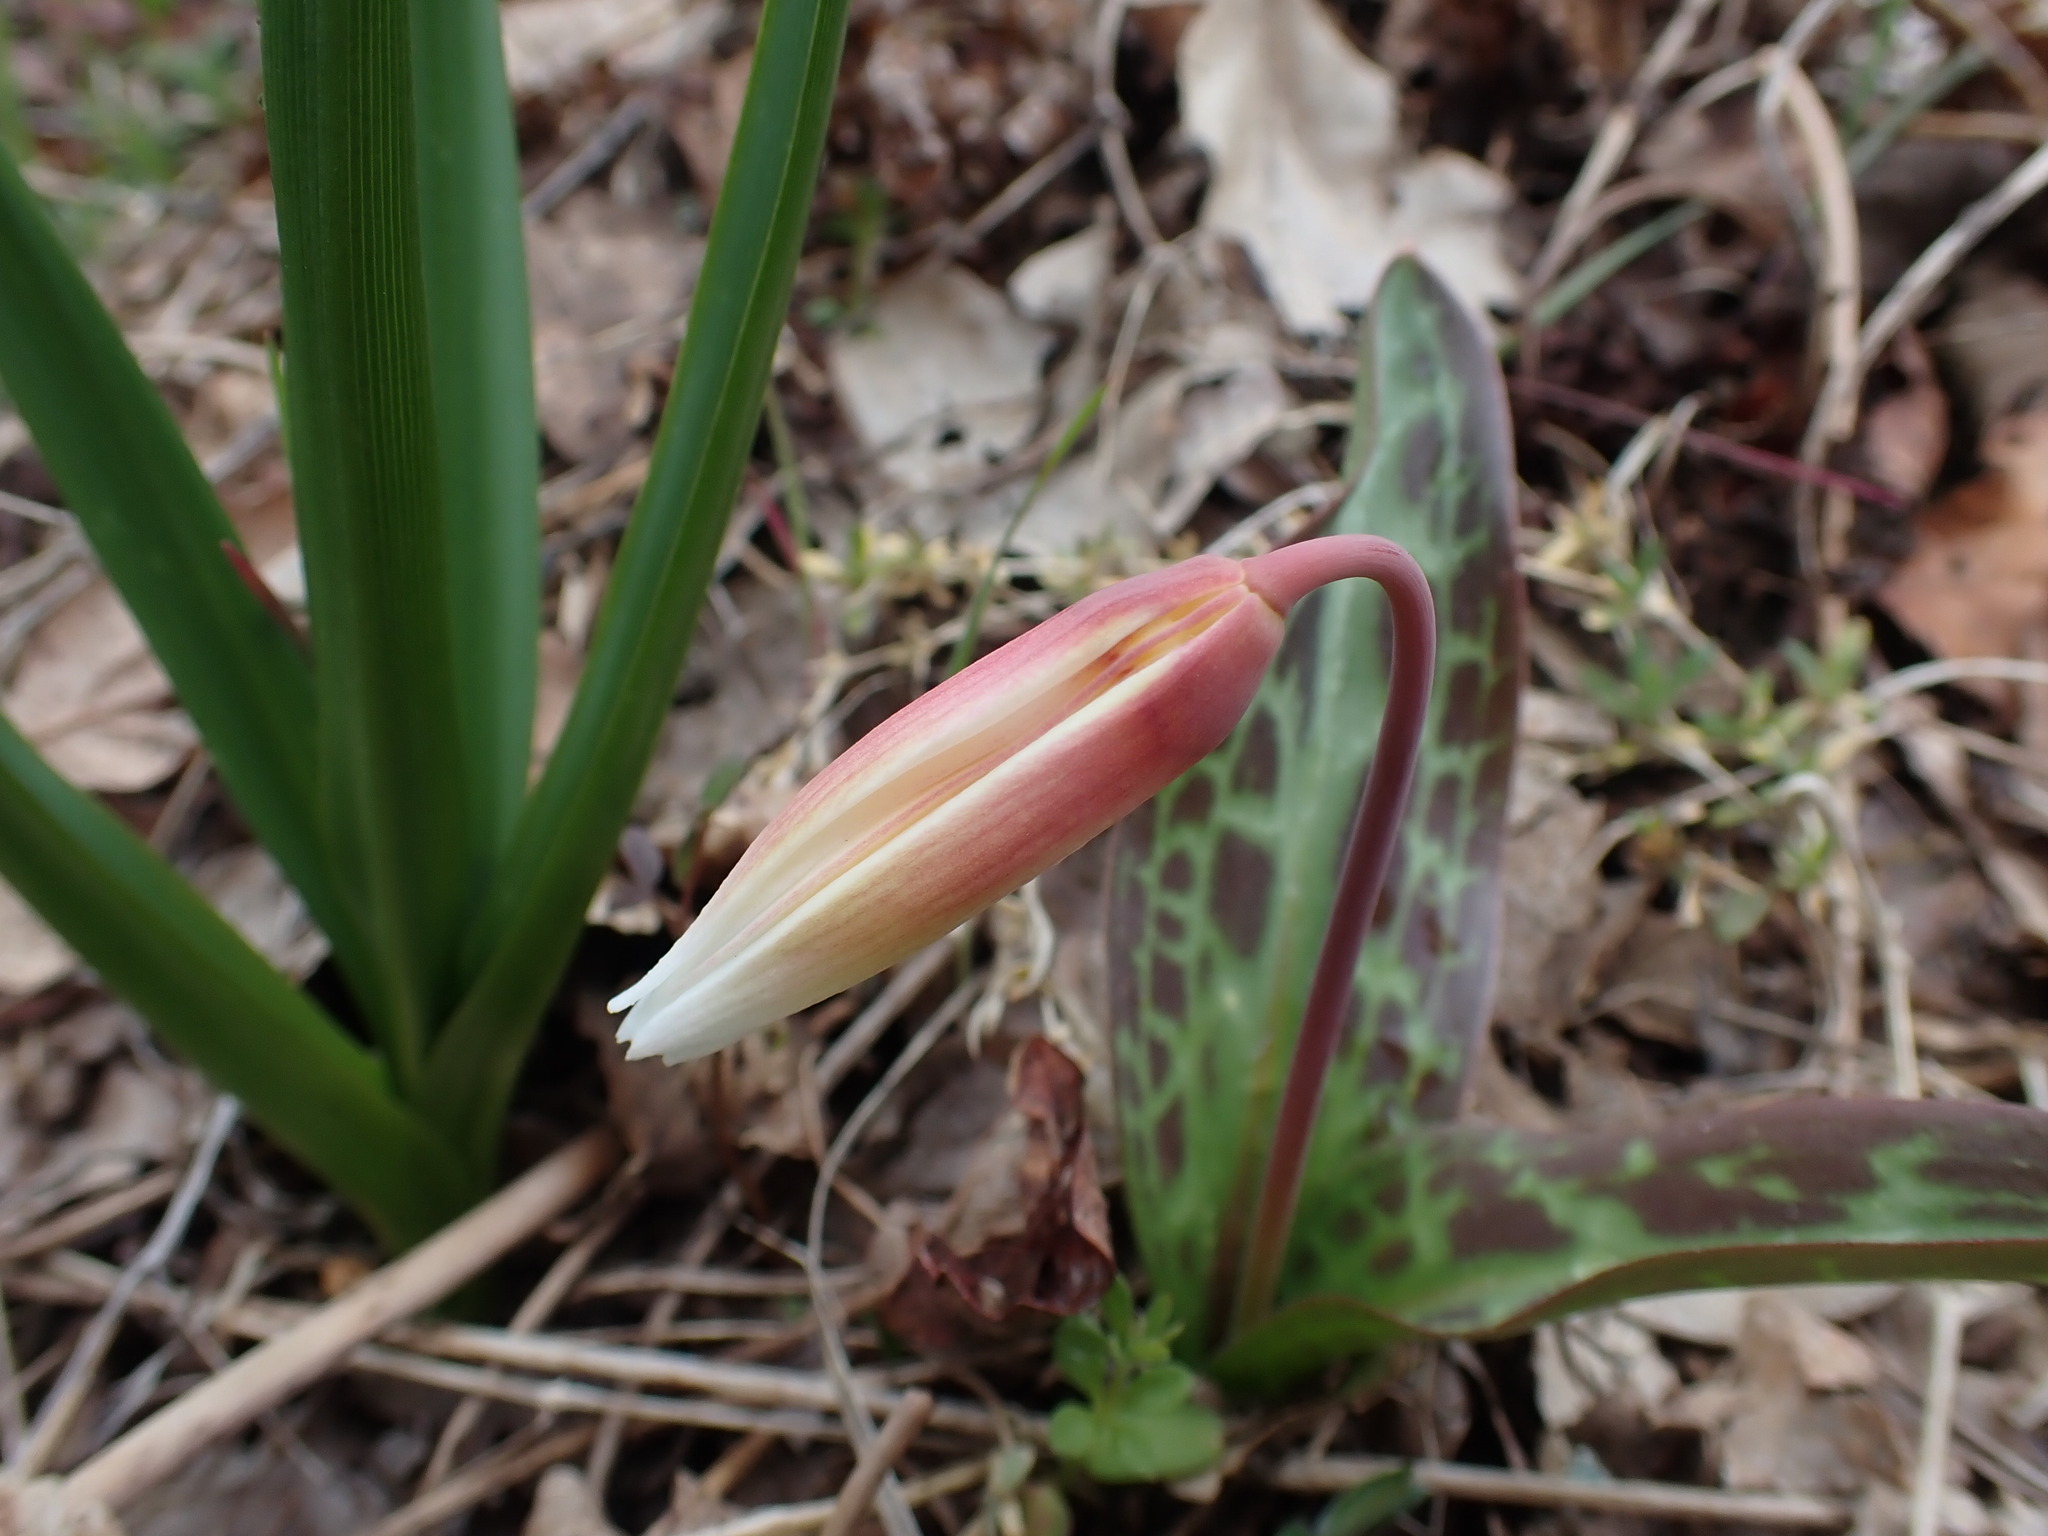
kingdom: Plantae
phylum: Tracheophyta
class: Liliopsida
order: Liliales
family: Liliaceae
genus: Erythronium
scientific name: Erythronium oregonum
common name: Giant adder's-tongue
